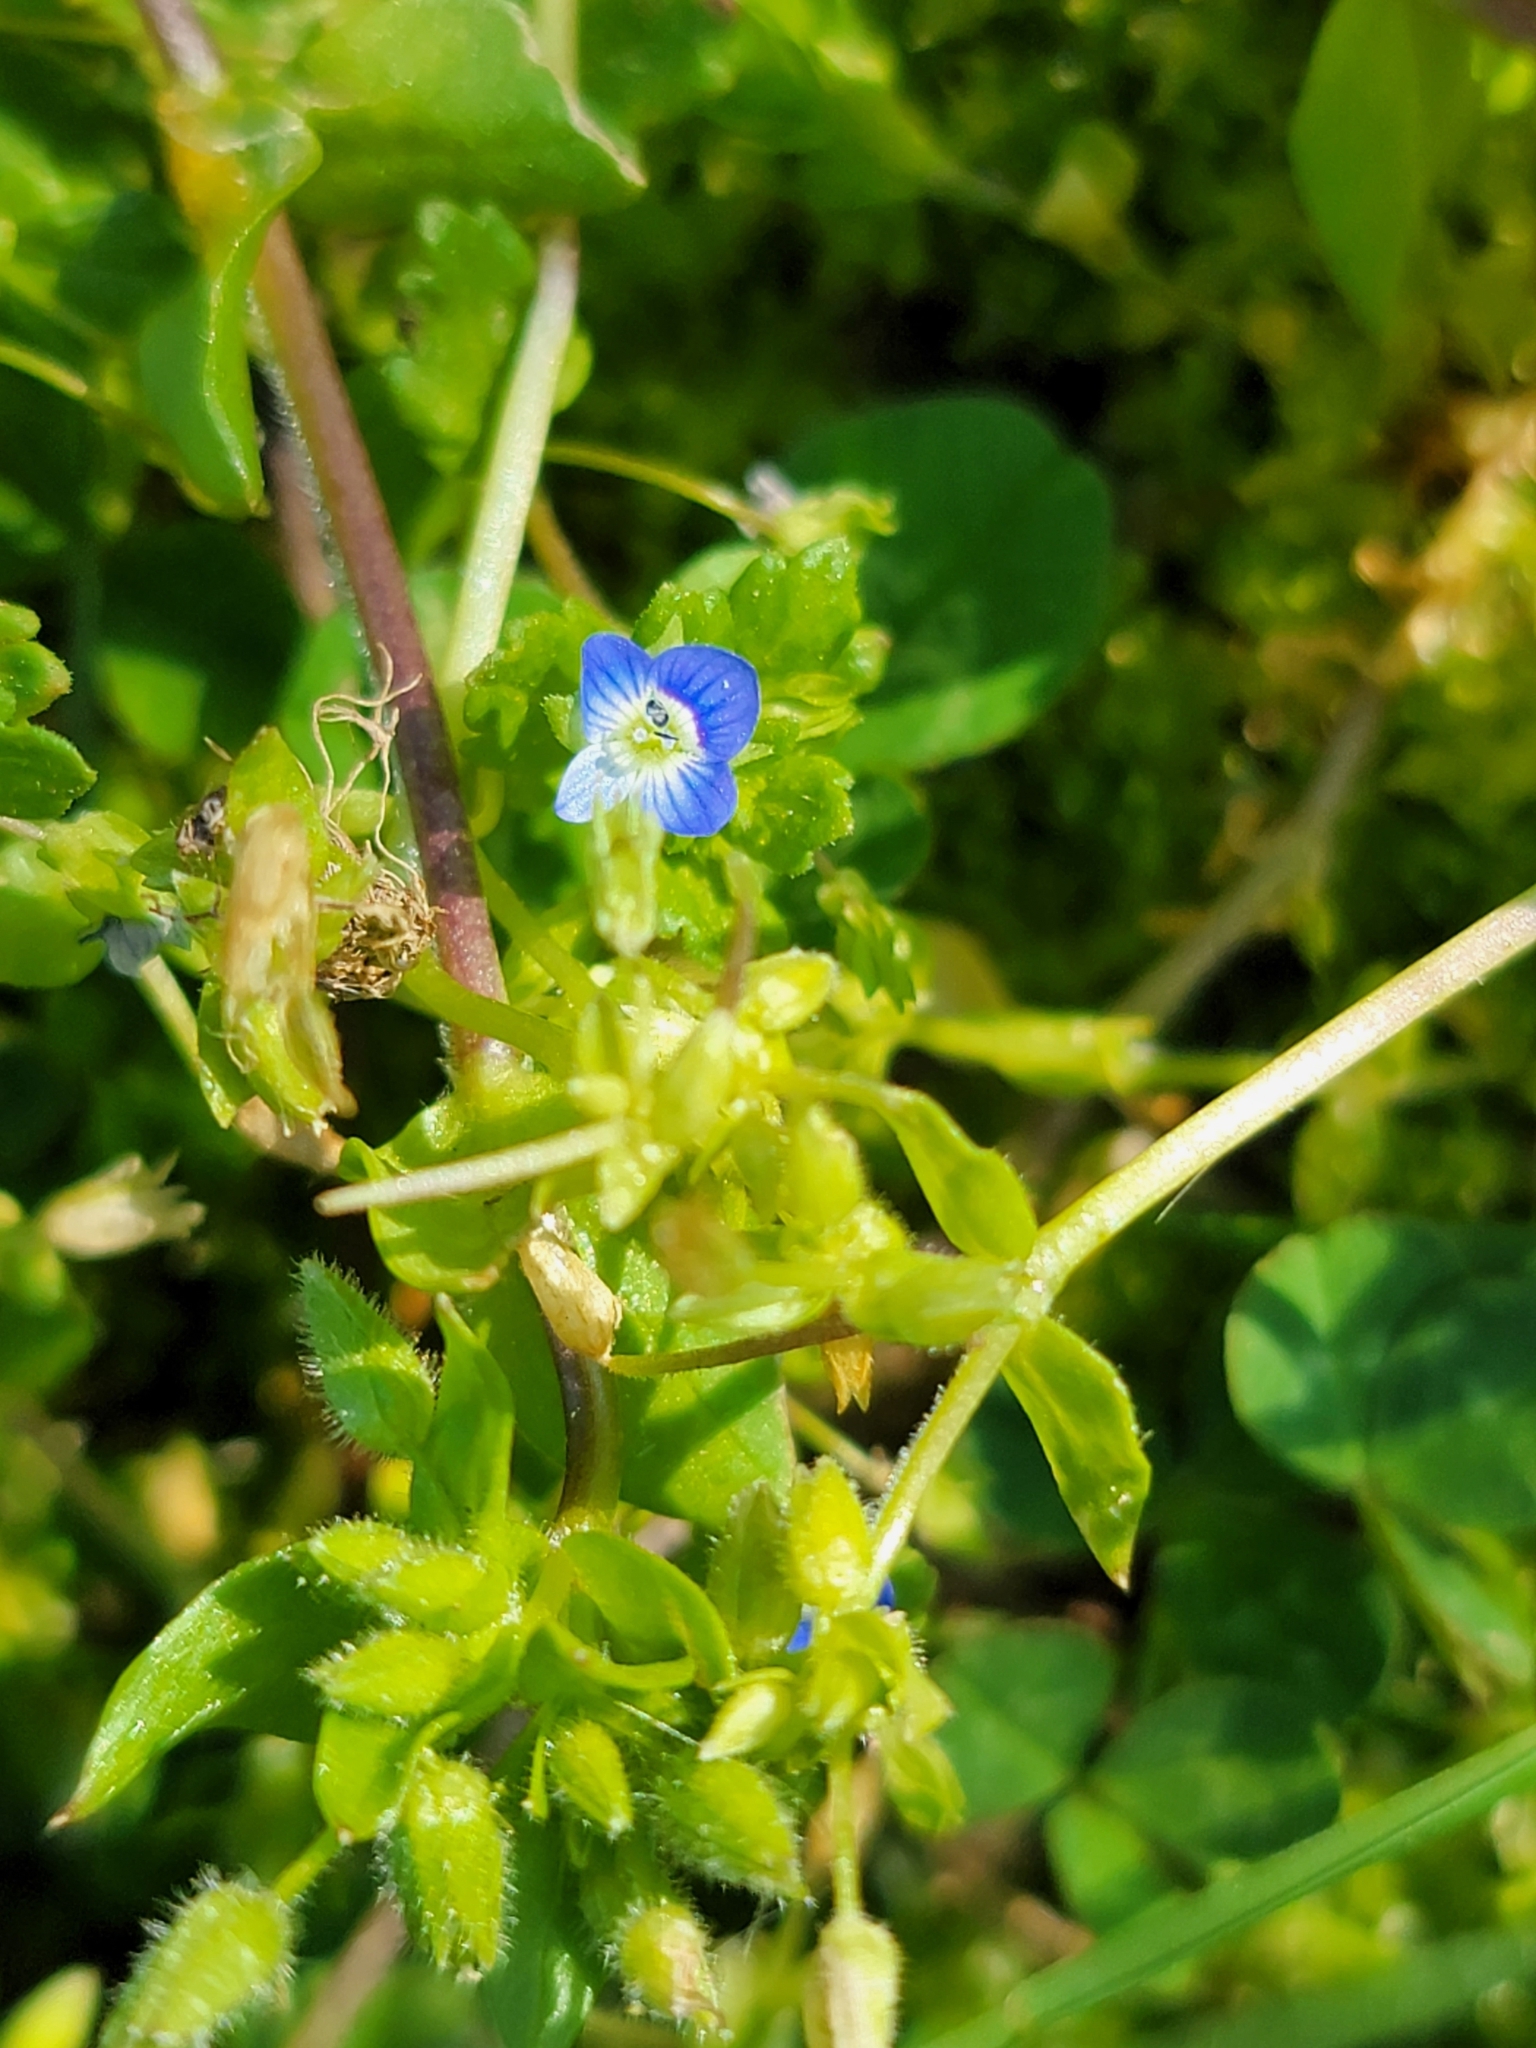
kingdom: Plantae
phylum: Tracheophyta
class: Magnoliopsida
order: Lamiales
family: Plantaginaceae
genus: Veronica
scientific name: Veronica persica
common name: Common field-speedwell
